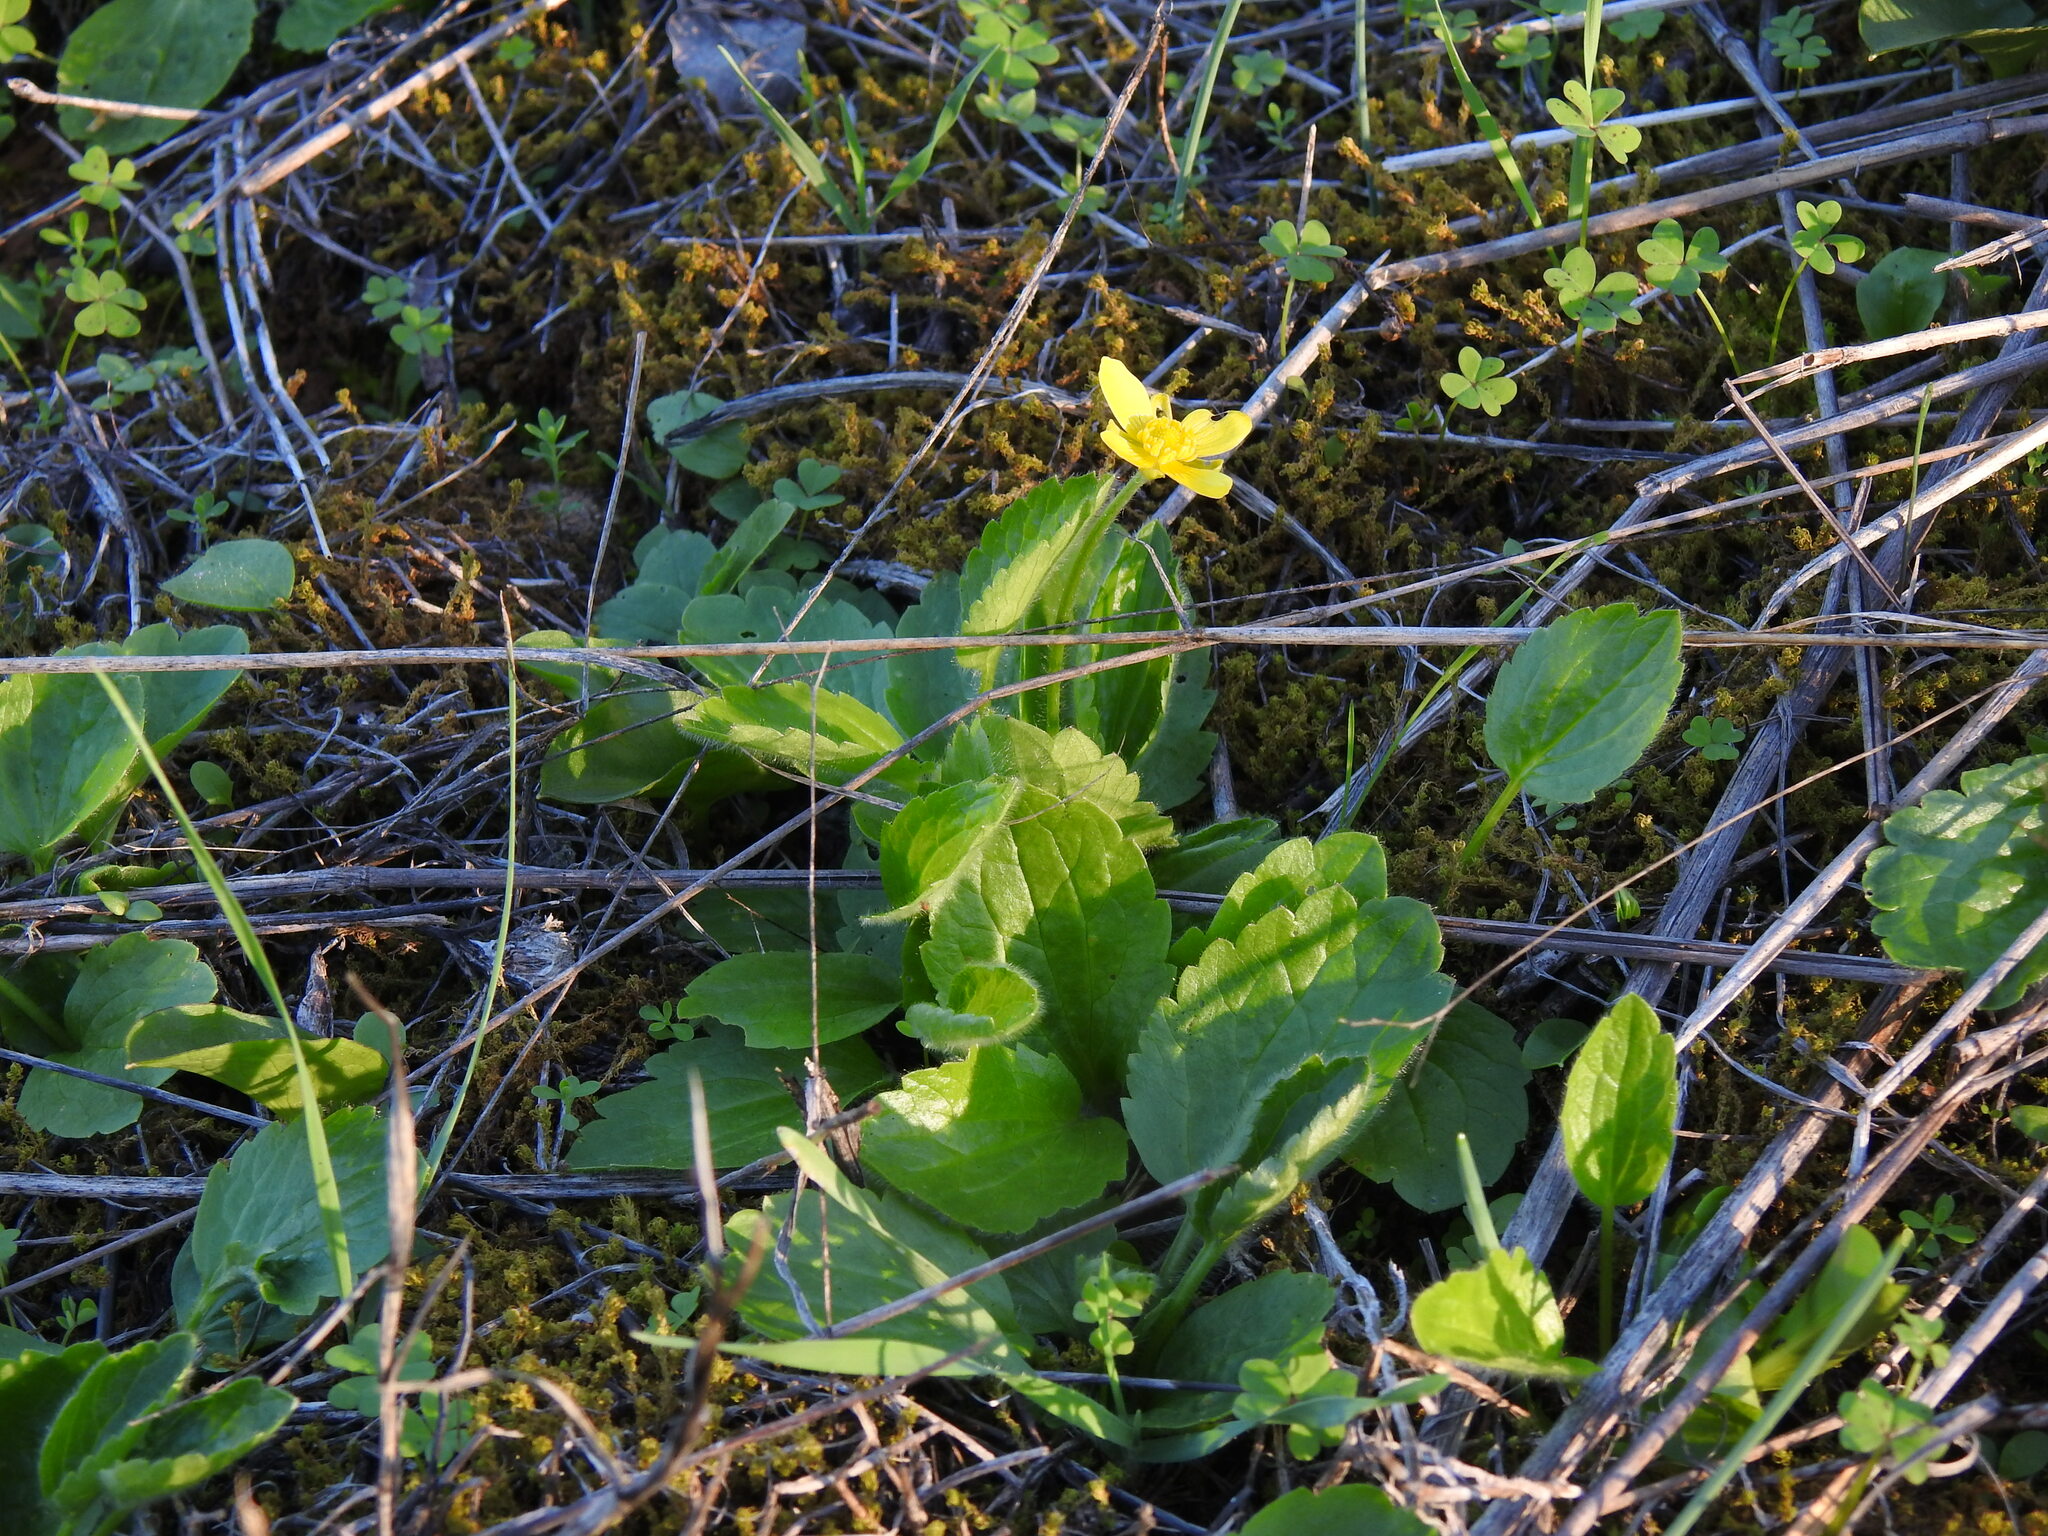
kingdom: Plantae
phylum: Tracheophyta
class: Magnoliopsida
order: Ranunculales
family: Ranunculaceae
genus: Ranunculus
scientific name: Ranunculus bullatus
